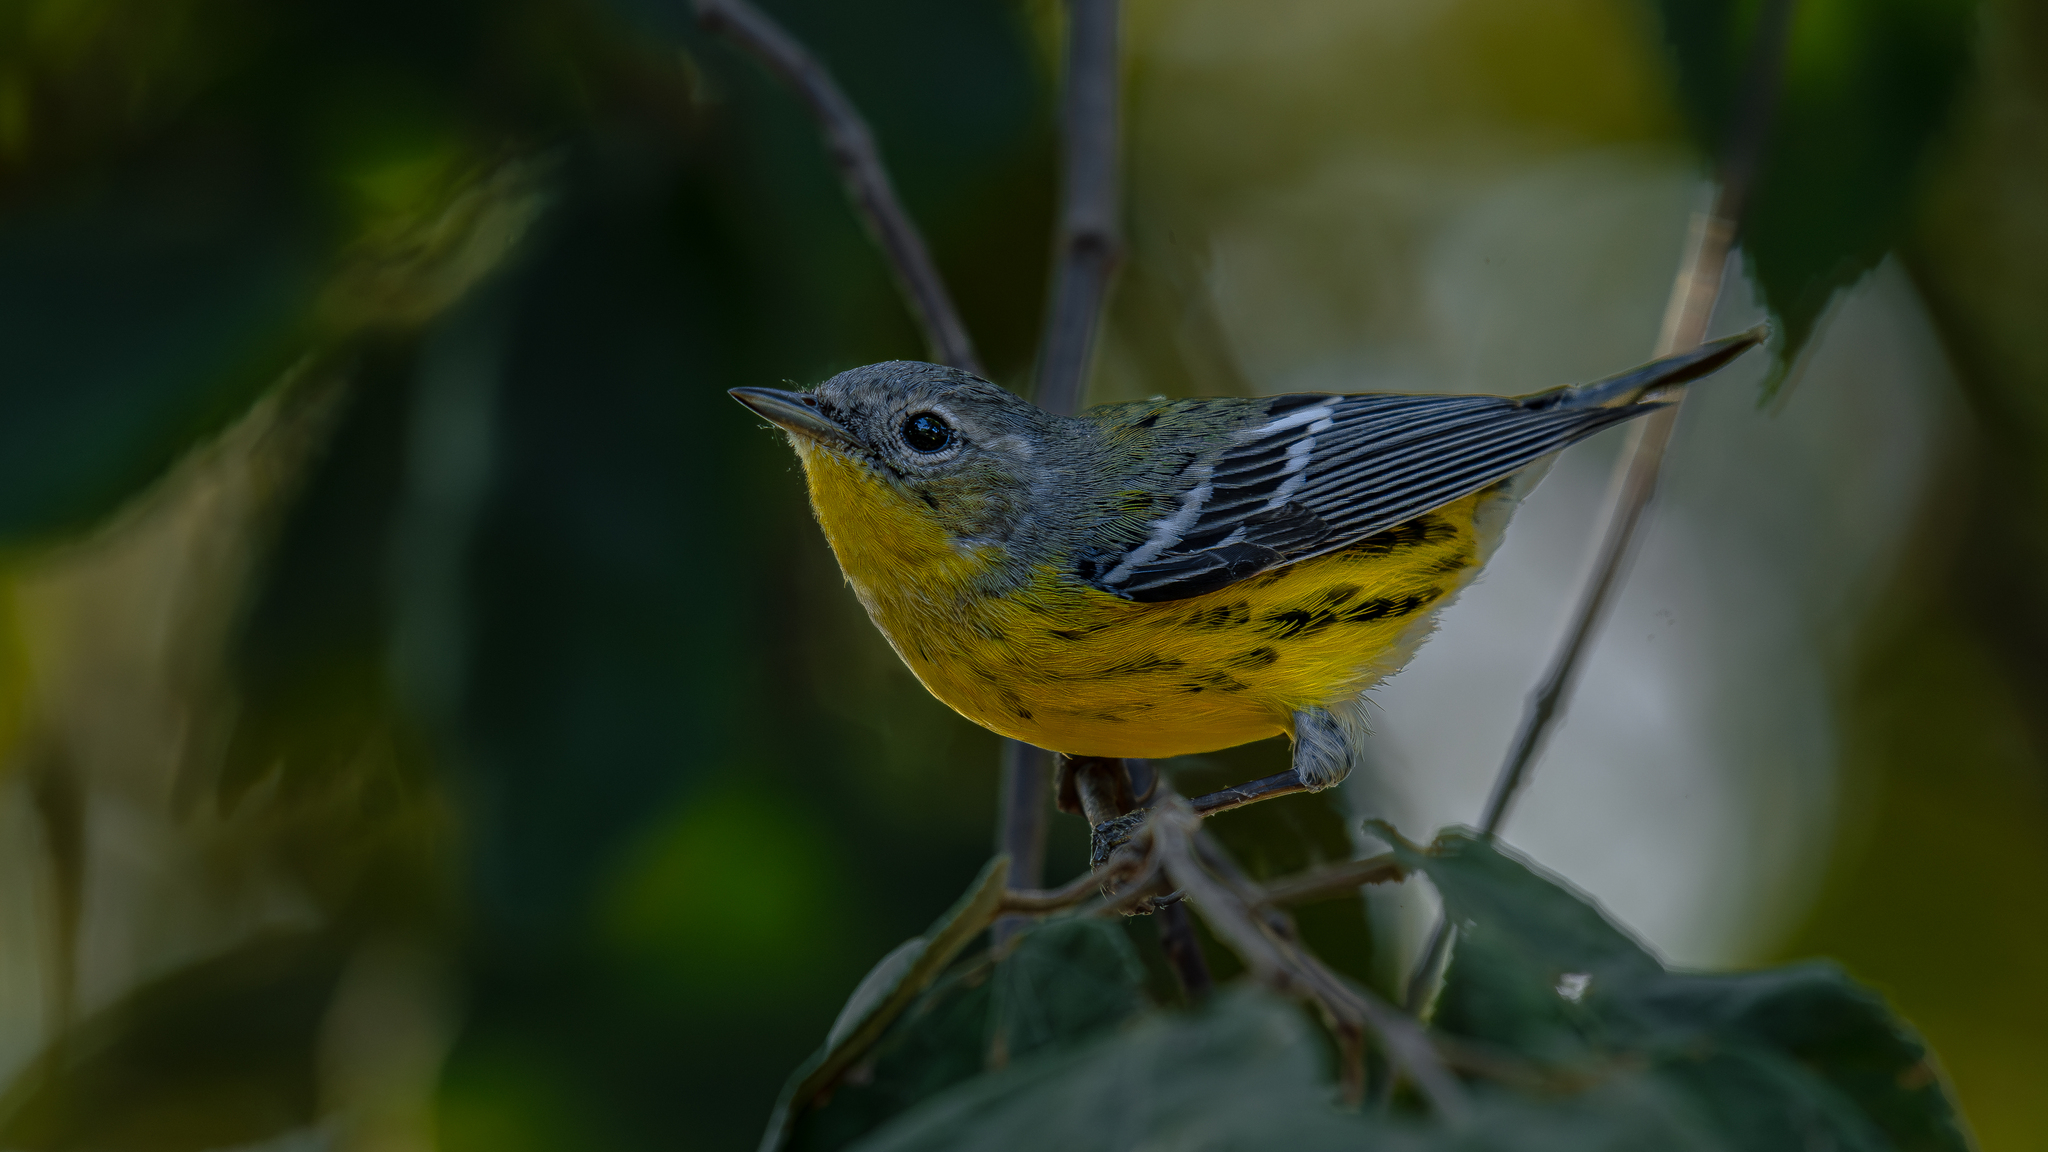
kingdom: Animalia
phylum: Chordata
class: Aves
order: Passeriformes
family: Parulidae
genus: Setophaga
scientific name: Setophaga magnolia
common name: Magnolia warbler
